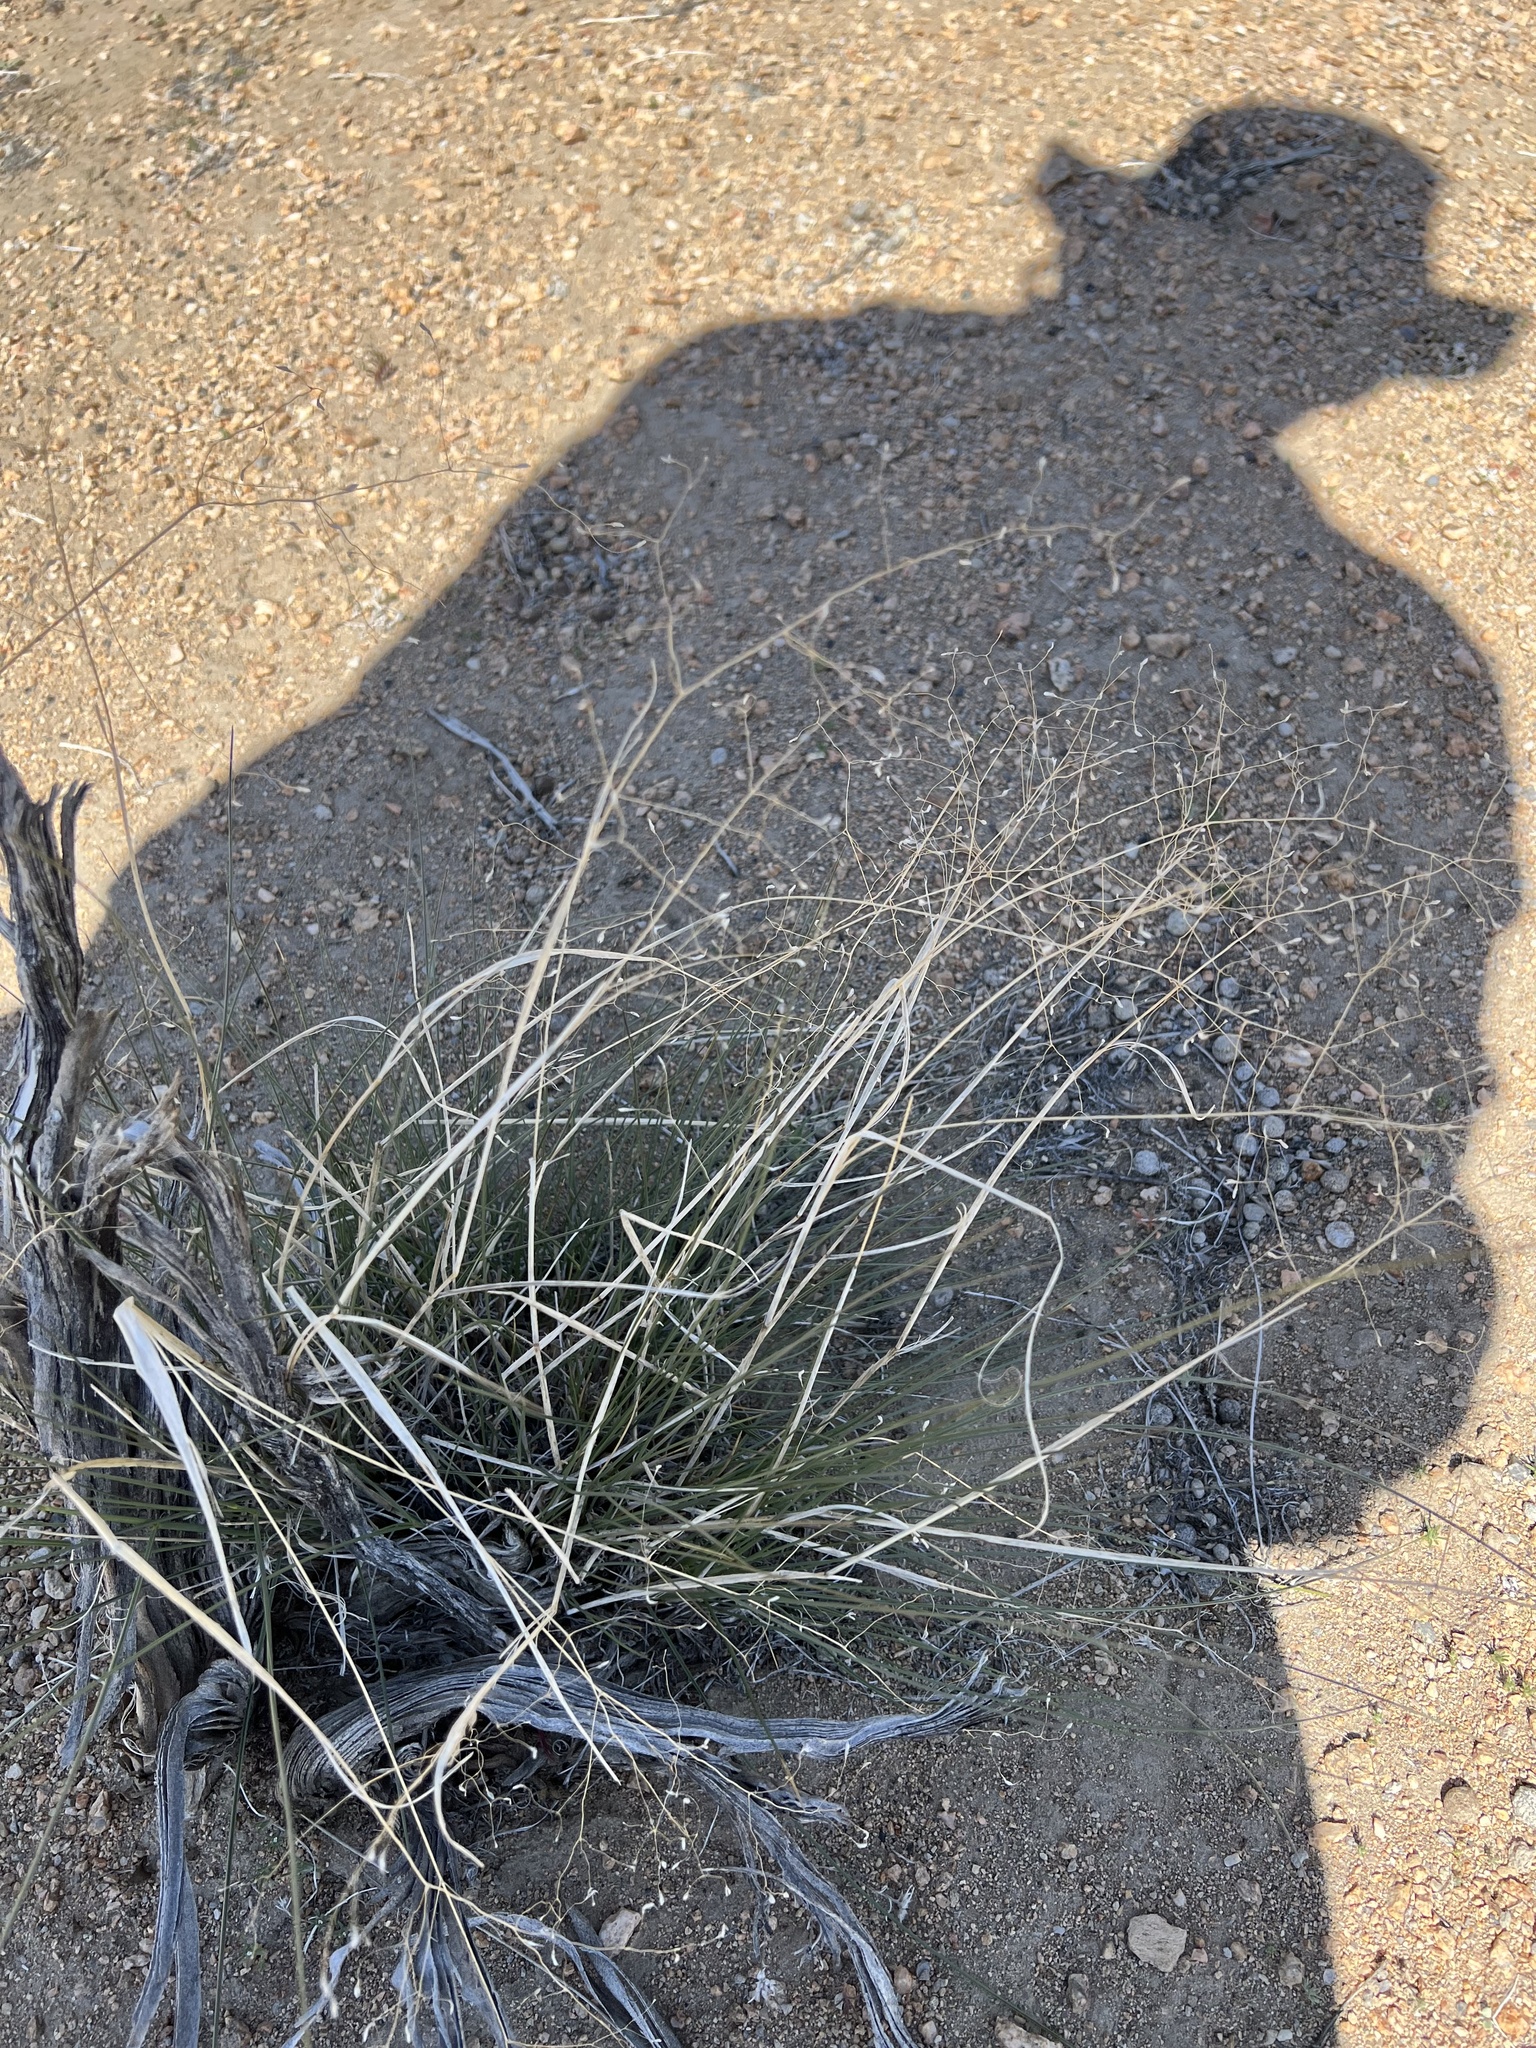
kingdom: Plantae
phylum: Tracheophyta
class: Liliopsida
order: Poales
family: Poaceae
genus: Eriocoma
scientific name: Eriocoma hymenoides
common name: Indian mountain ricegrass
